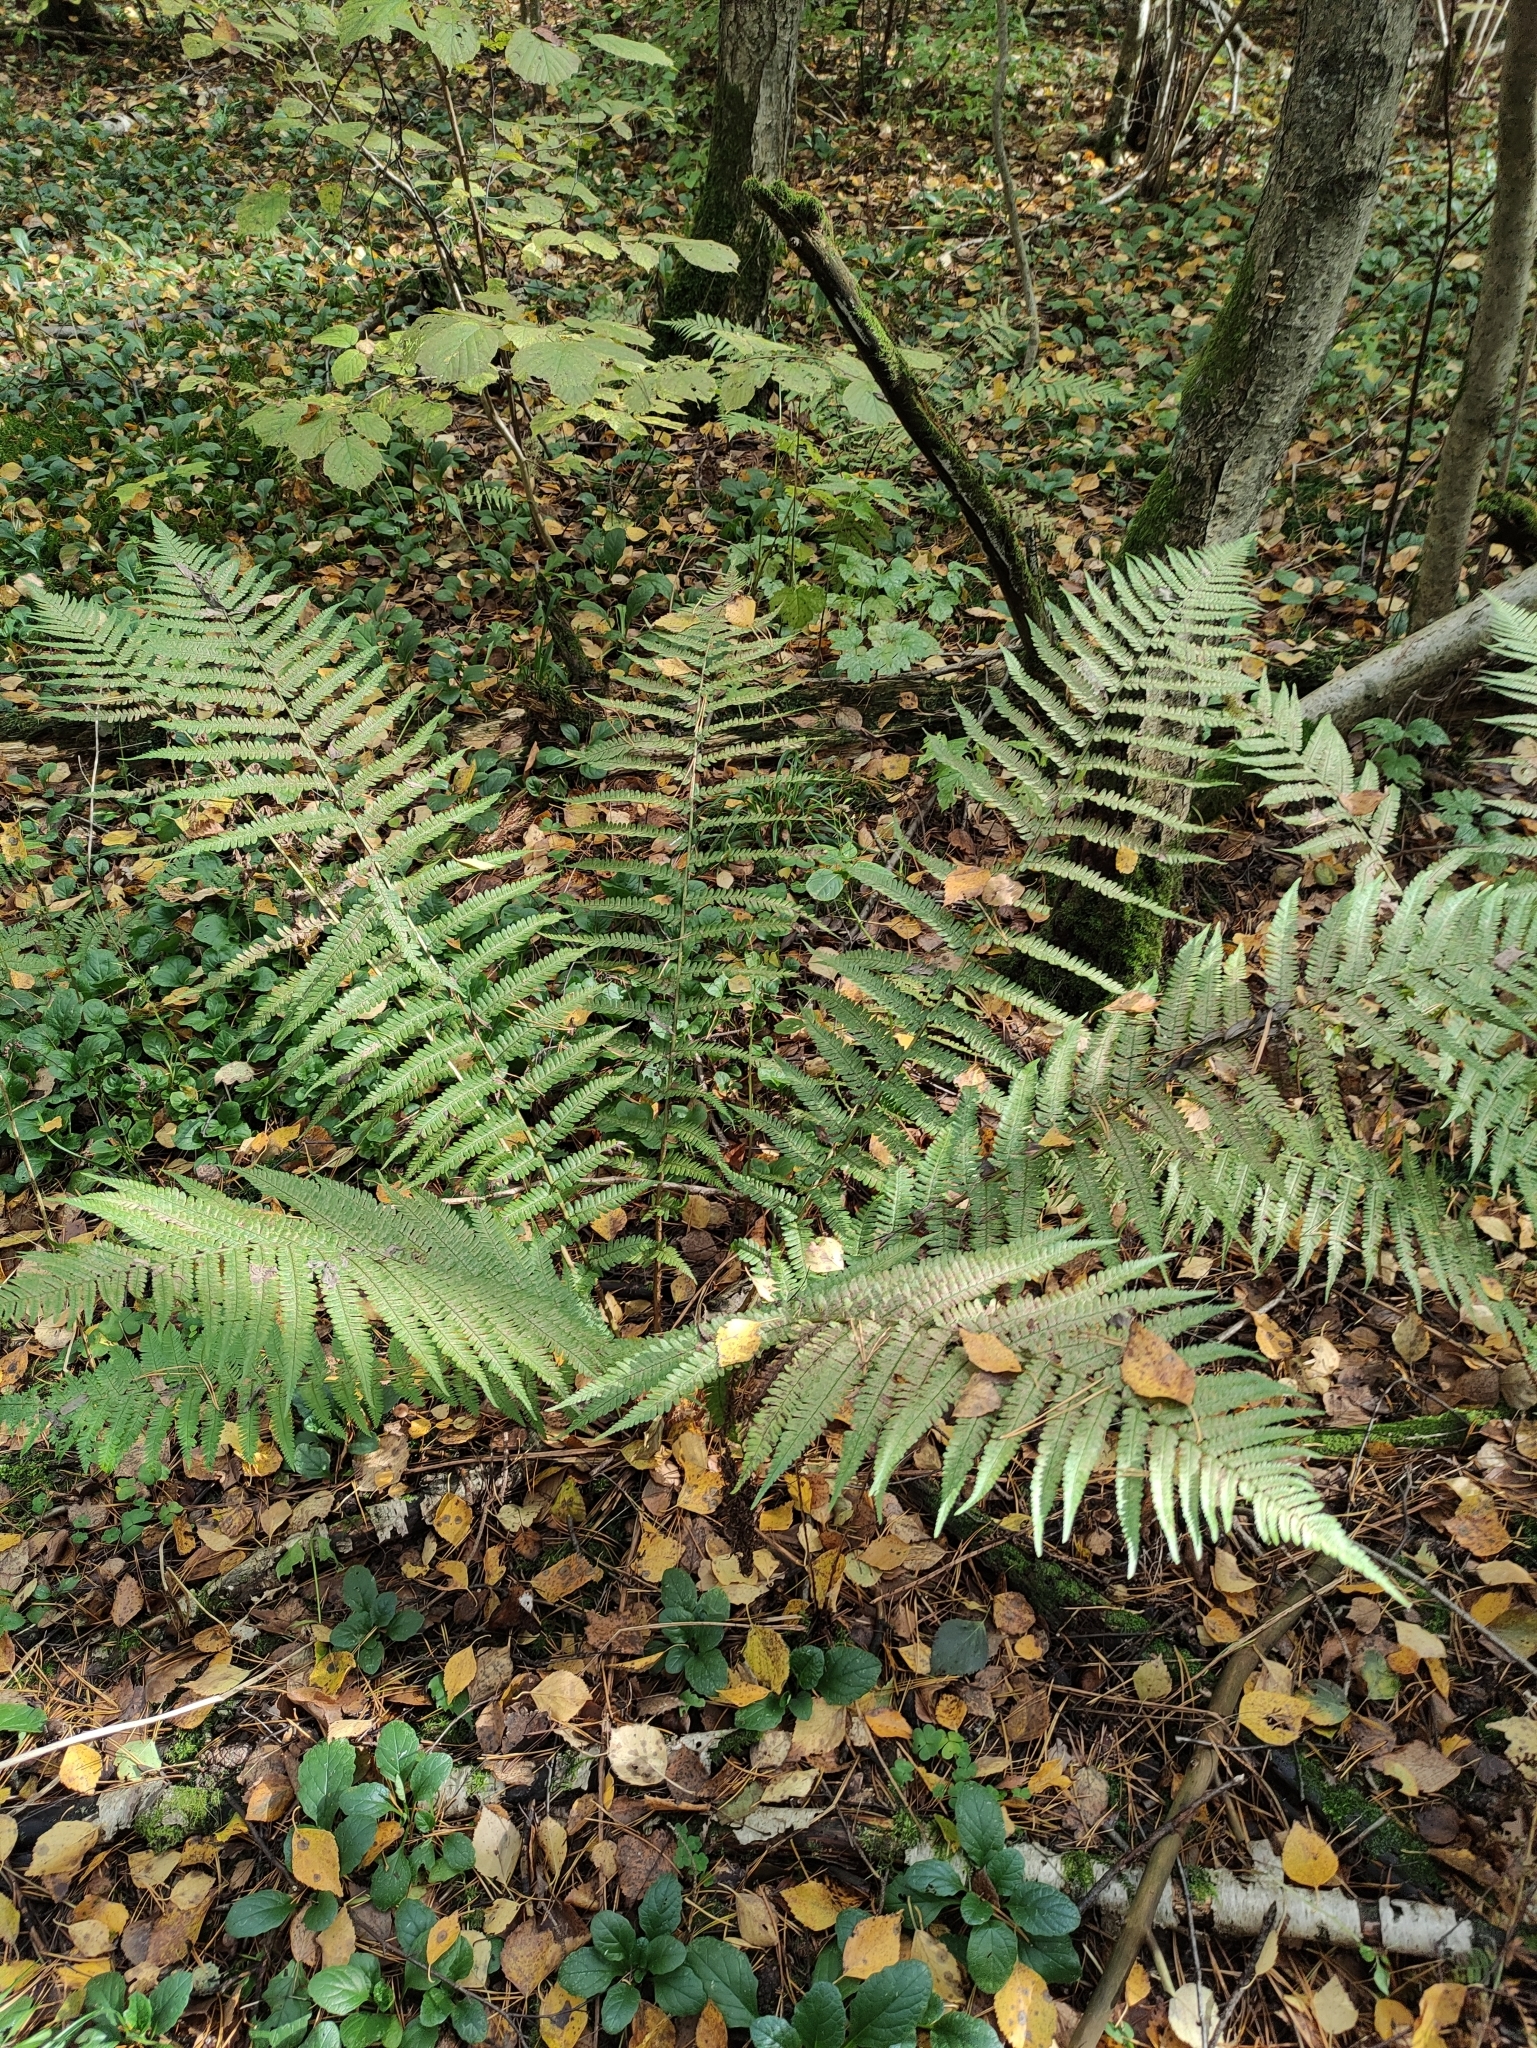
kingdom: Plantae
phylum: Tracheophyta
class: Polypodiopsida
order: Polypodiales
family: Dryopteridaceae
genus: Dryopteris
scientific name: Dryopteris filix-mas
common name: Male fern
